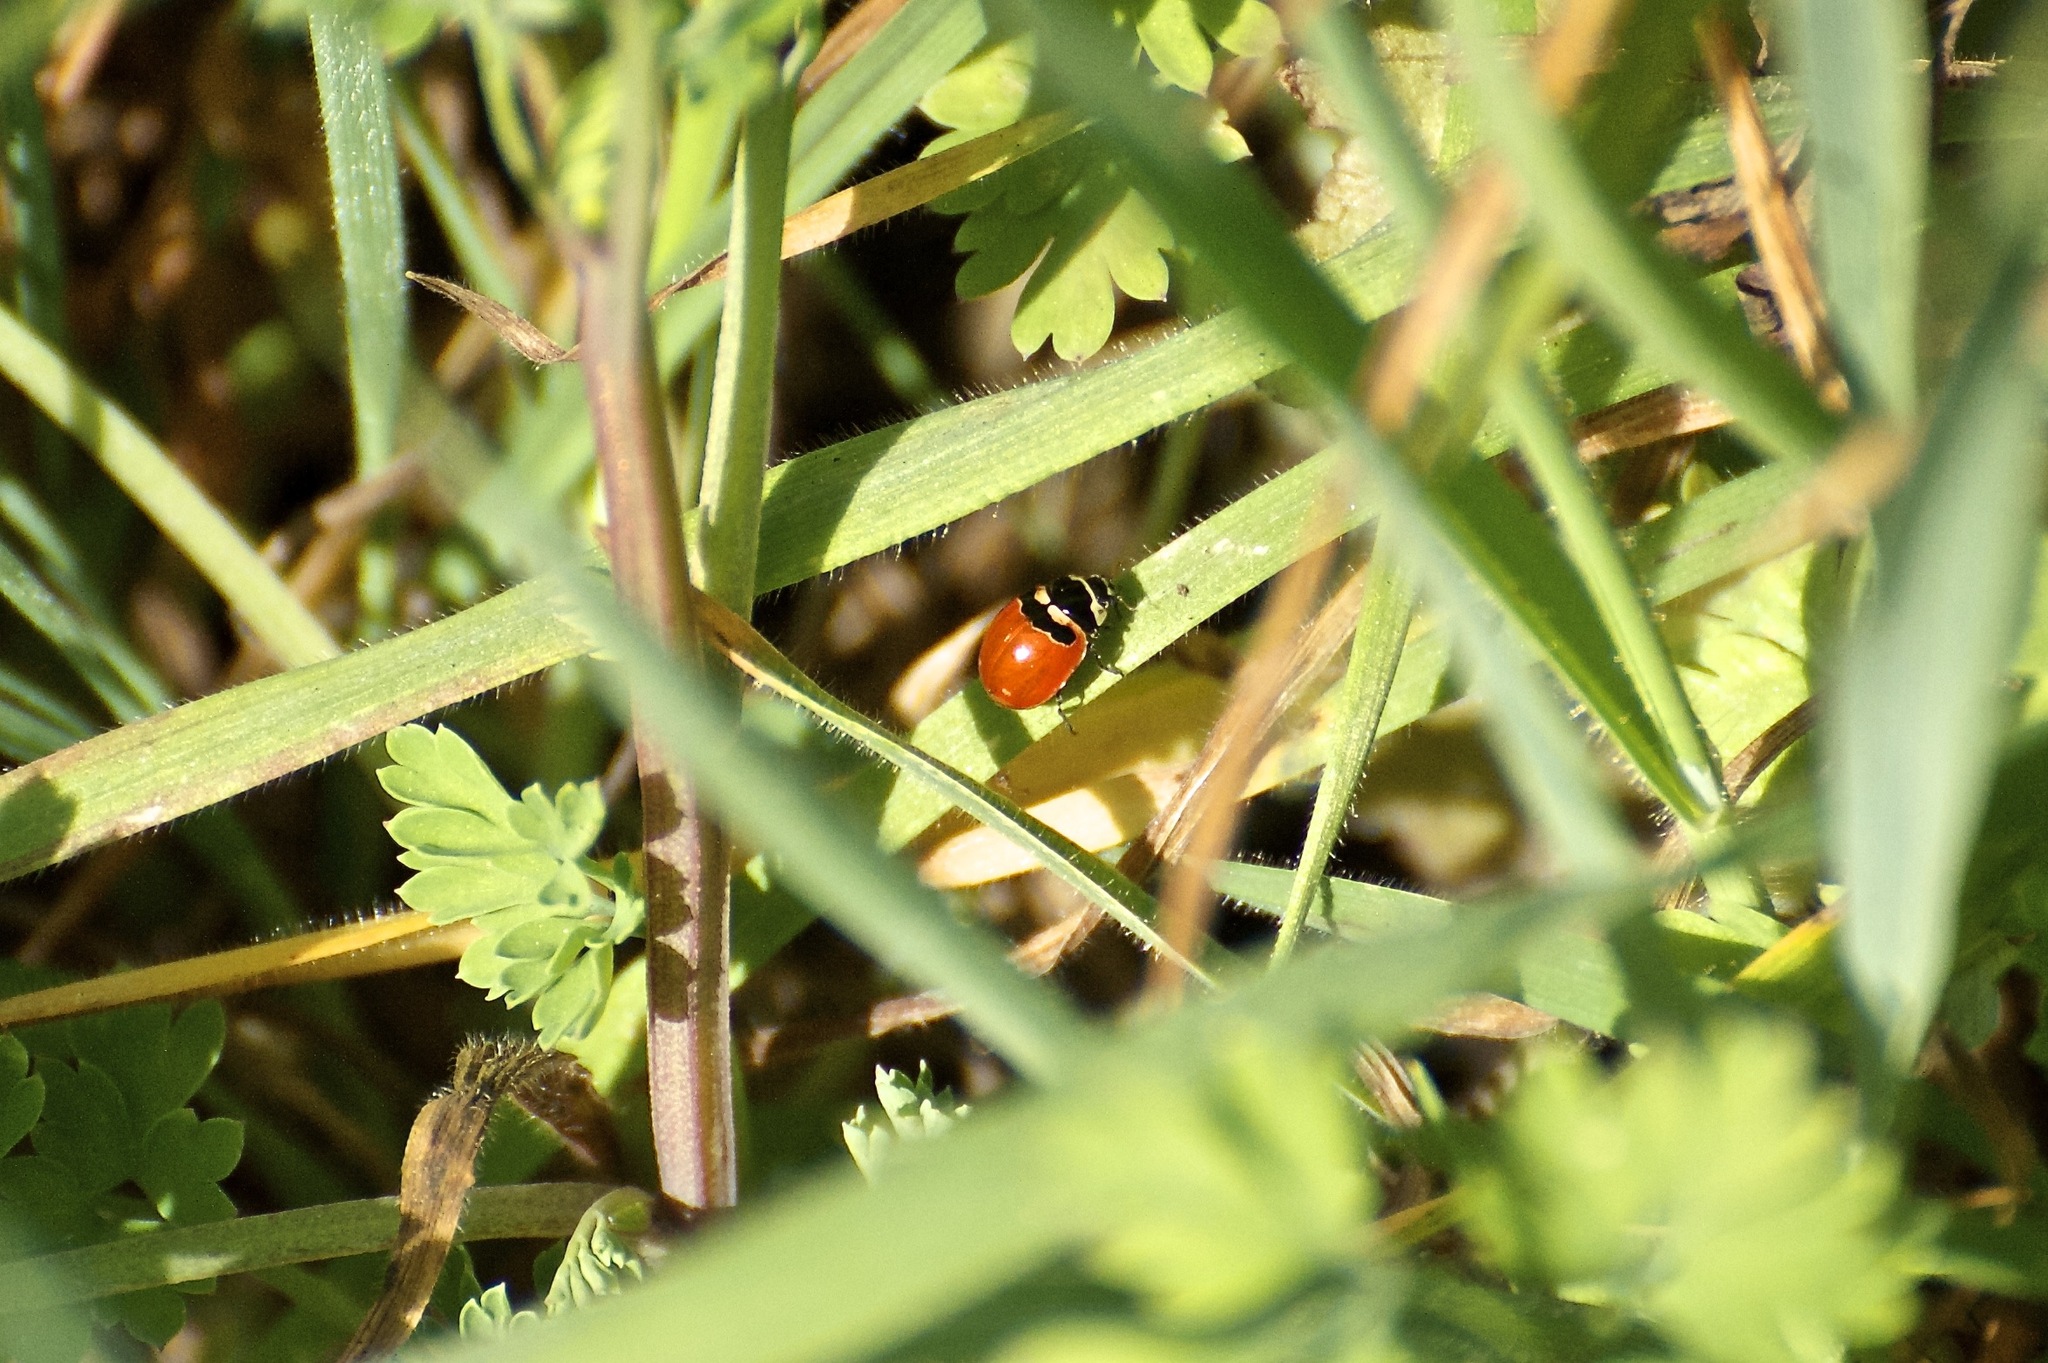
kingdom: Animalia
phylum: Arthropoda
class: Insecta
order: Coleoptera
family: Coccinellidae
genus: Coccinella
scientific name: Coccinella trifasciata
